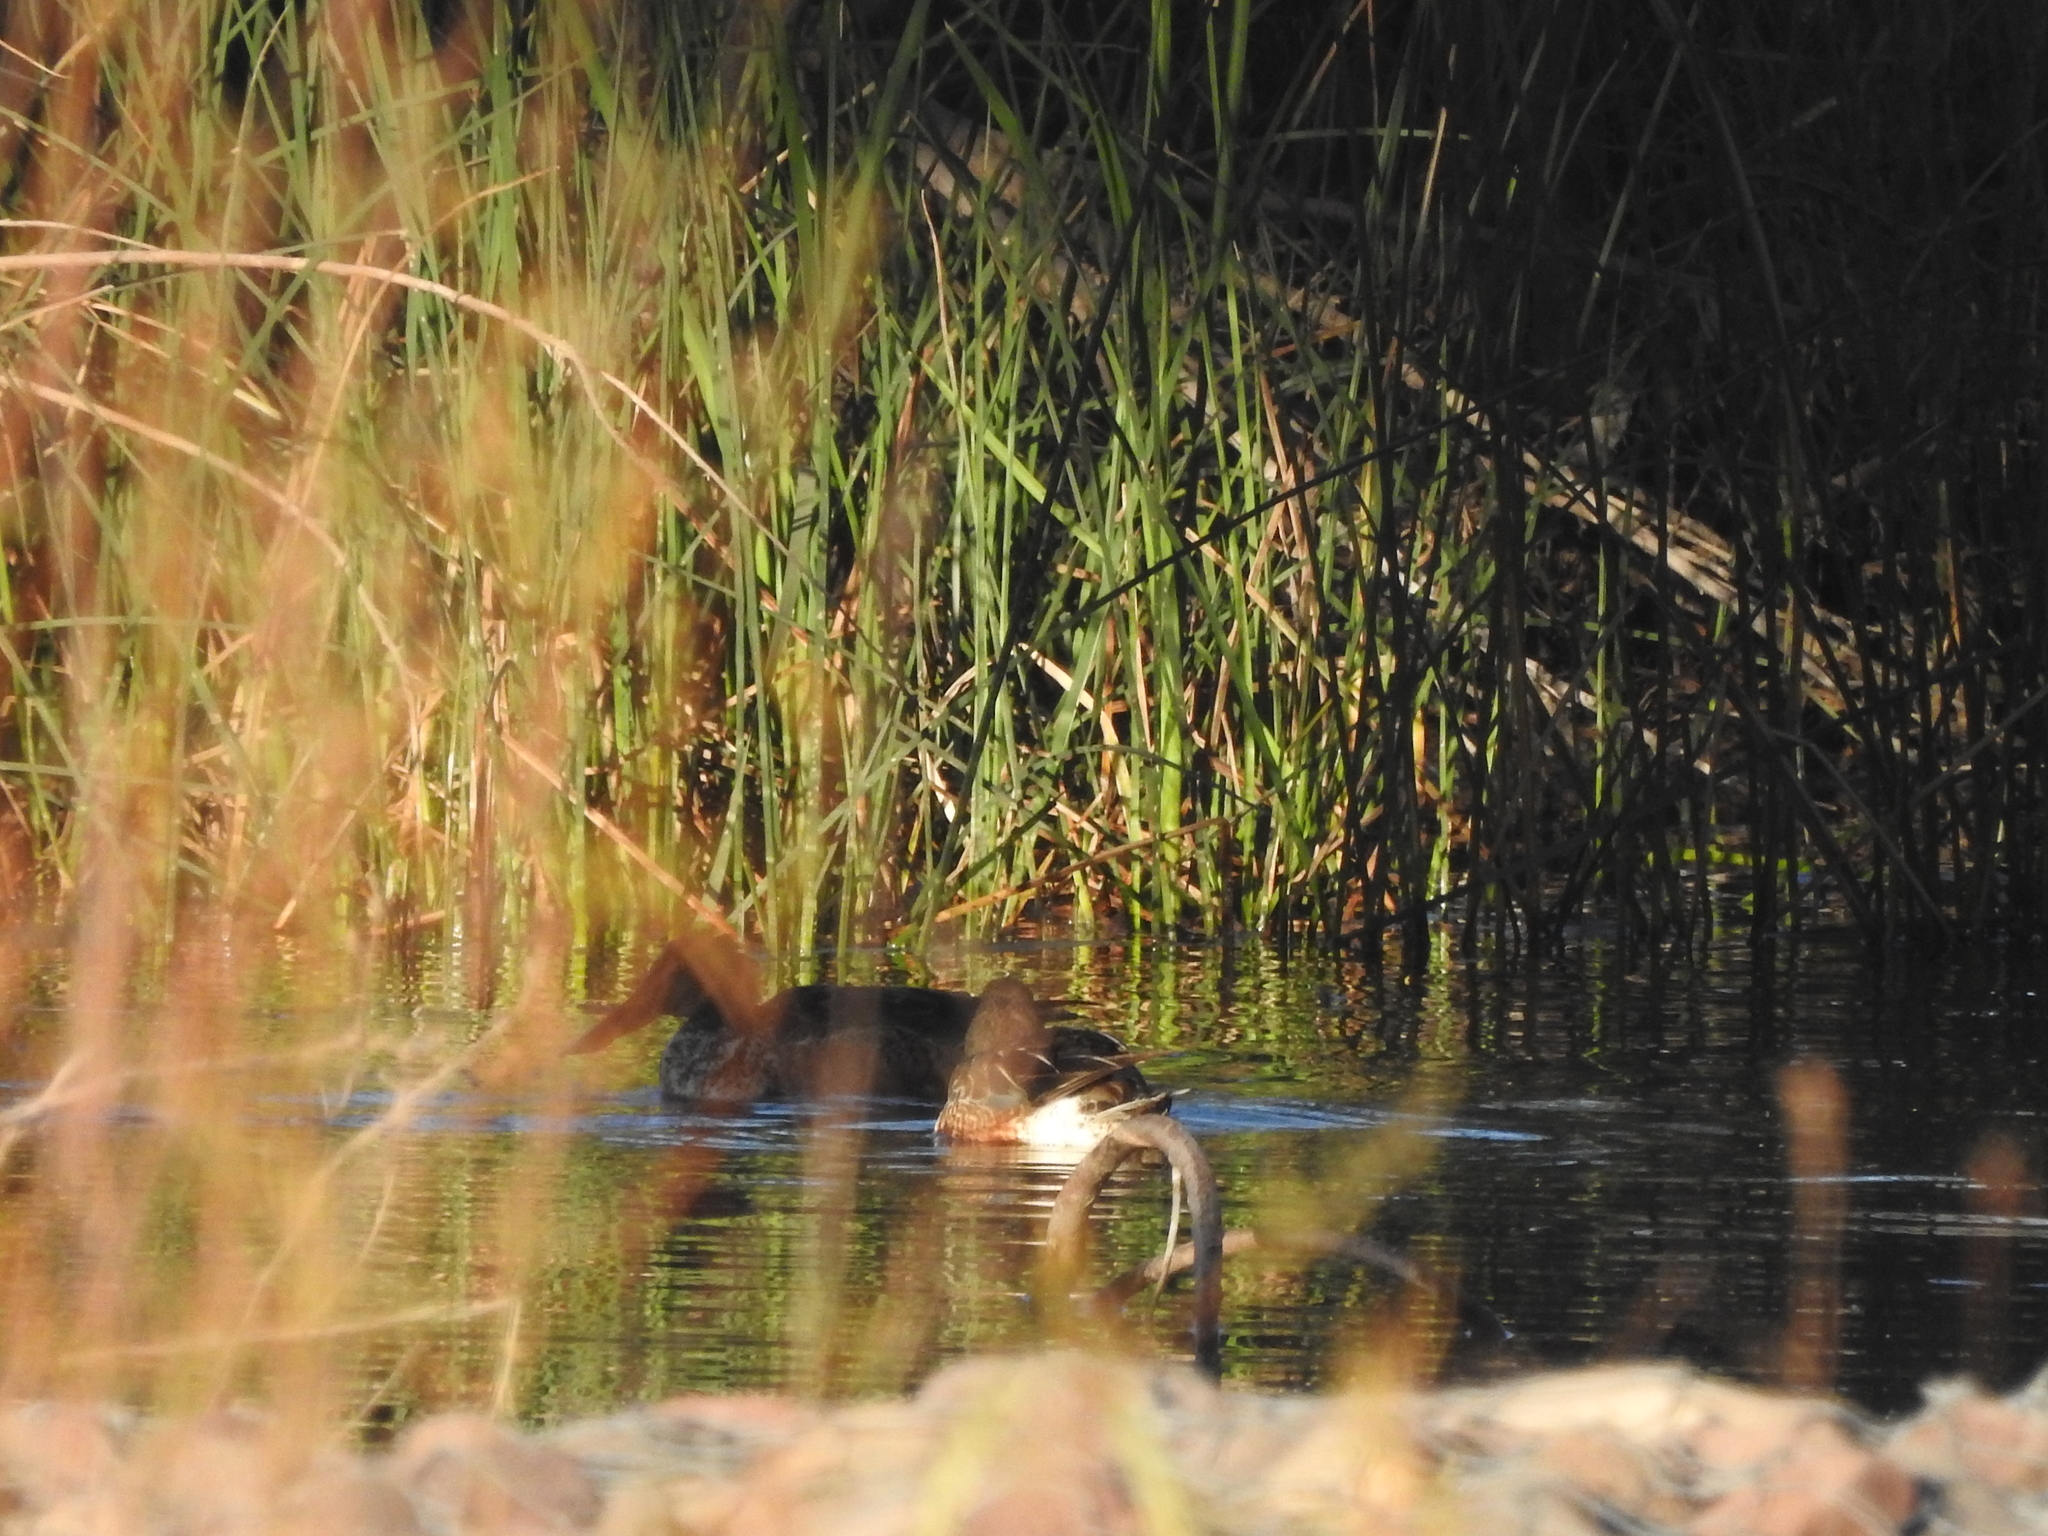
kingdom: Animalia
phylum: Chordata
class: Aves
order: Anseriformes
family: Anatidae
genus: Spatula
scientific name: Spatula clypeata
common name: Northern shoveler
